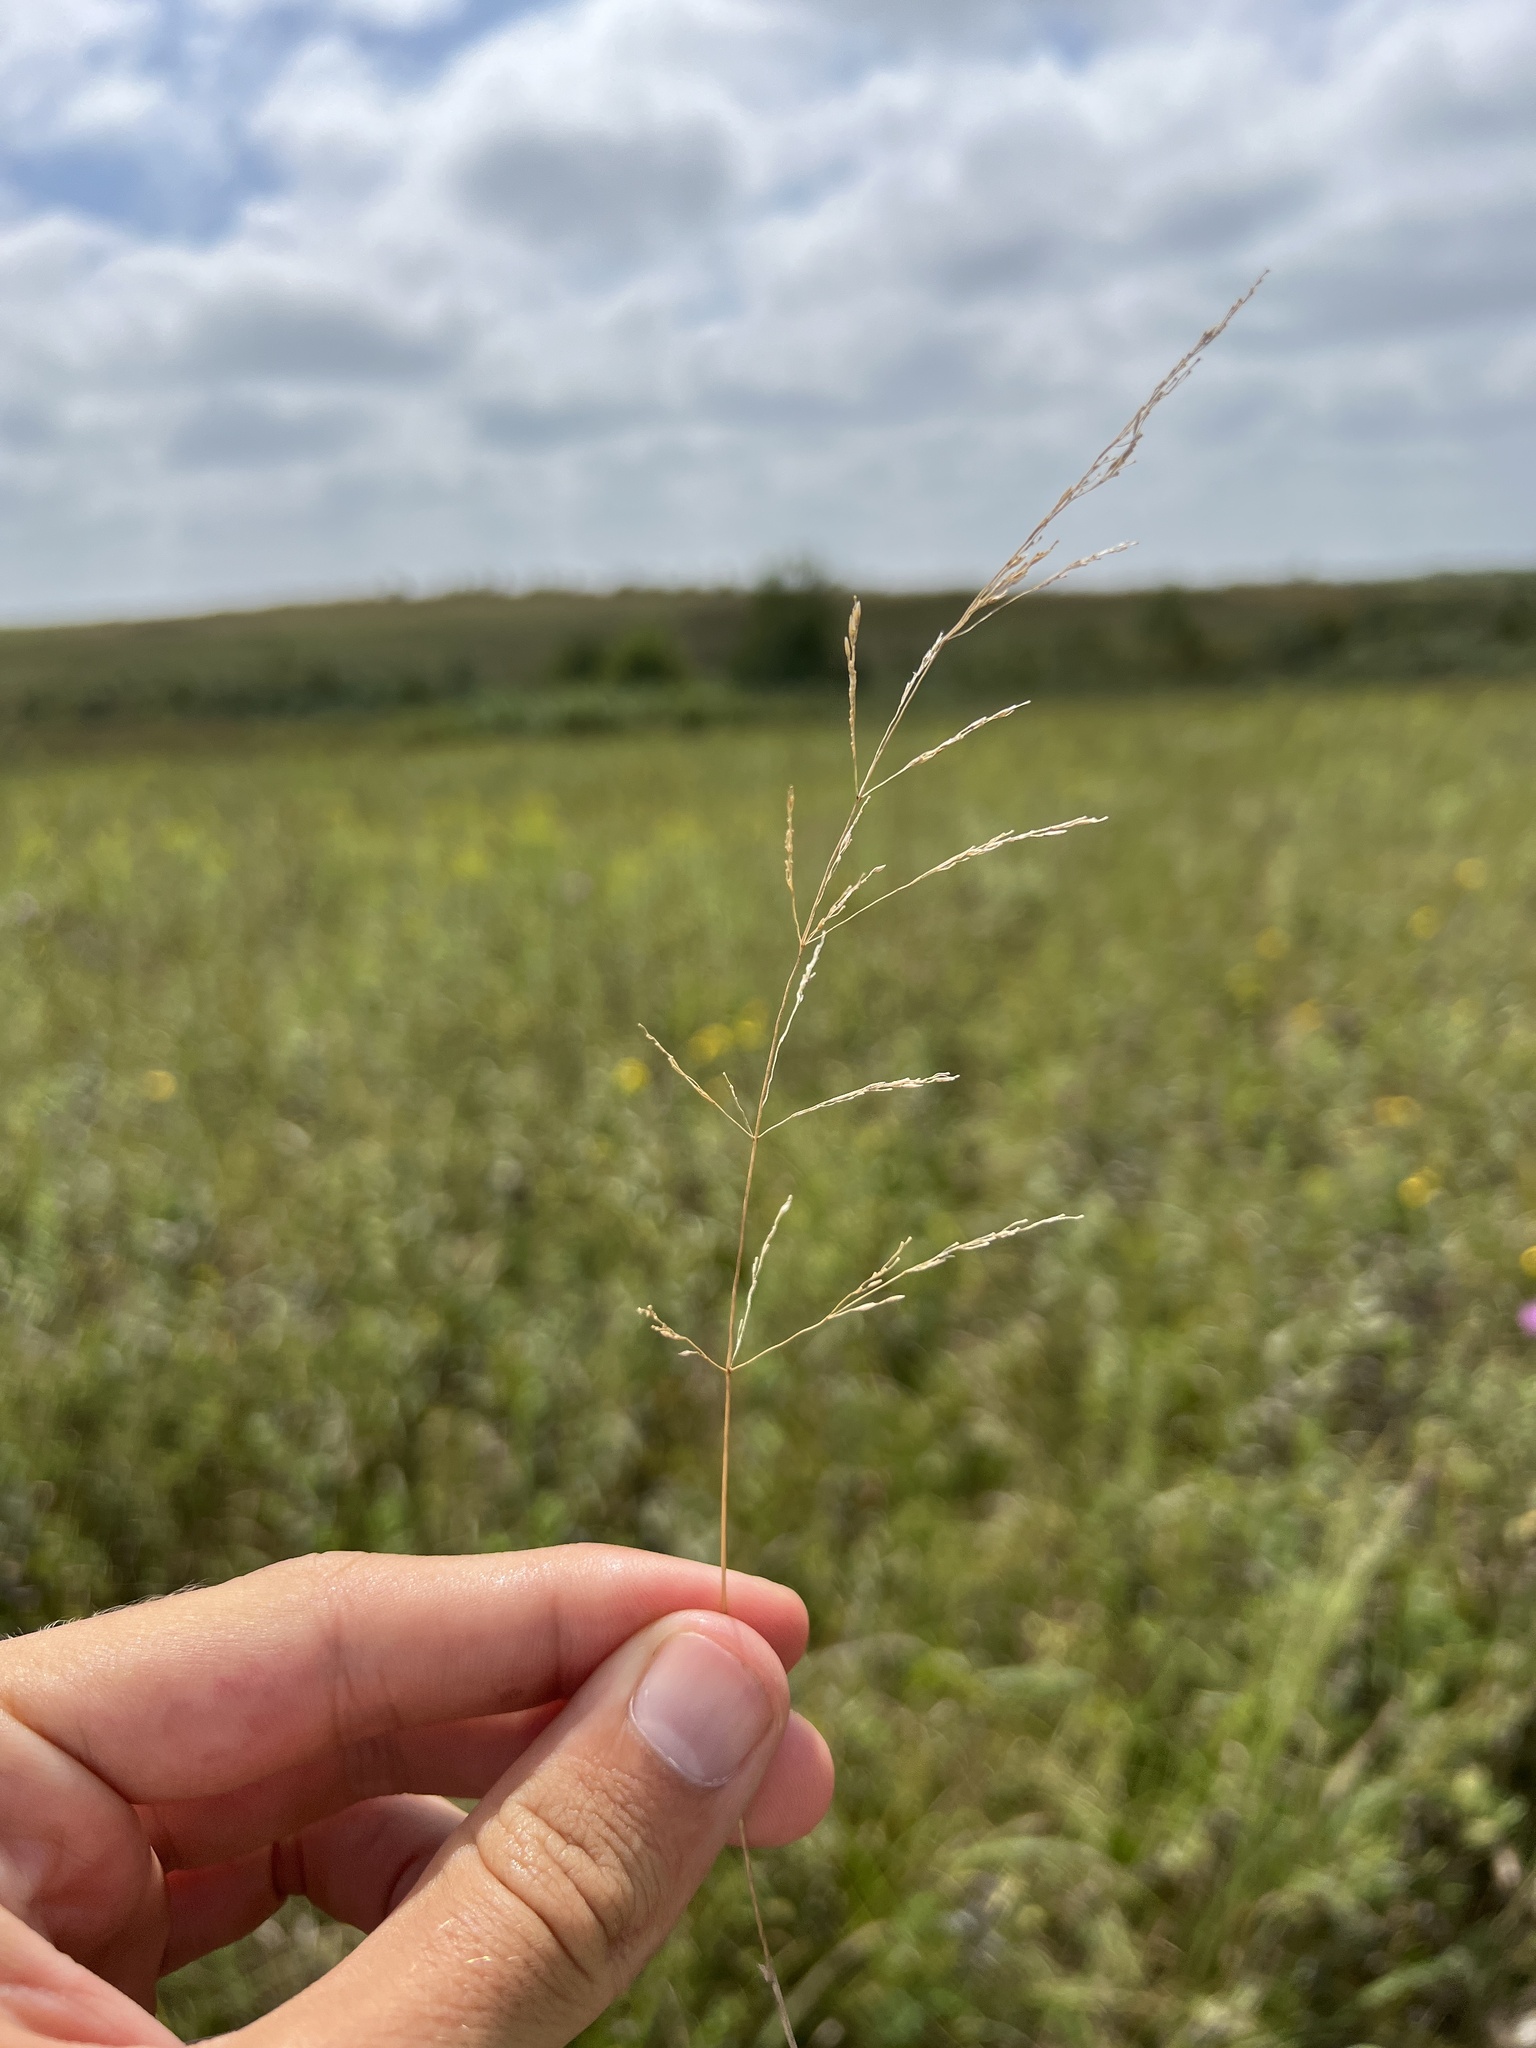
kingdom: Plantae
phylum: Tracheophyta
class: Liliopsida
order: Poales
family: Poaceae
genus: Agrostis
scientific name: Agrostis gigantea
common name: Black bent
